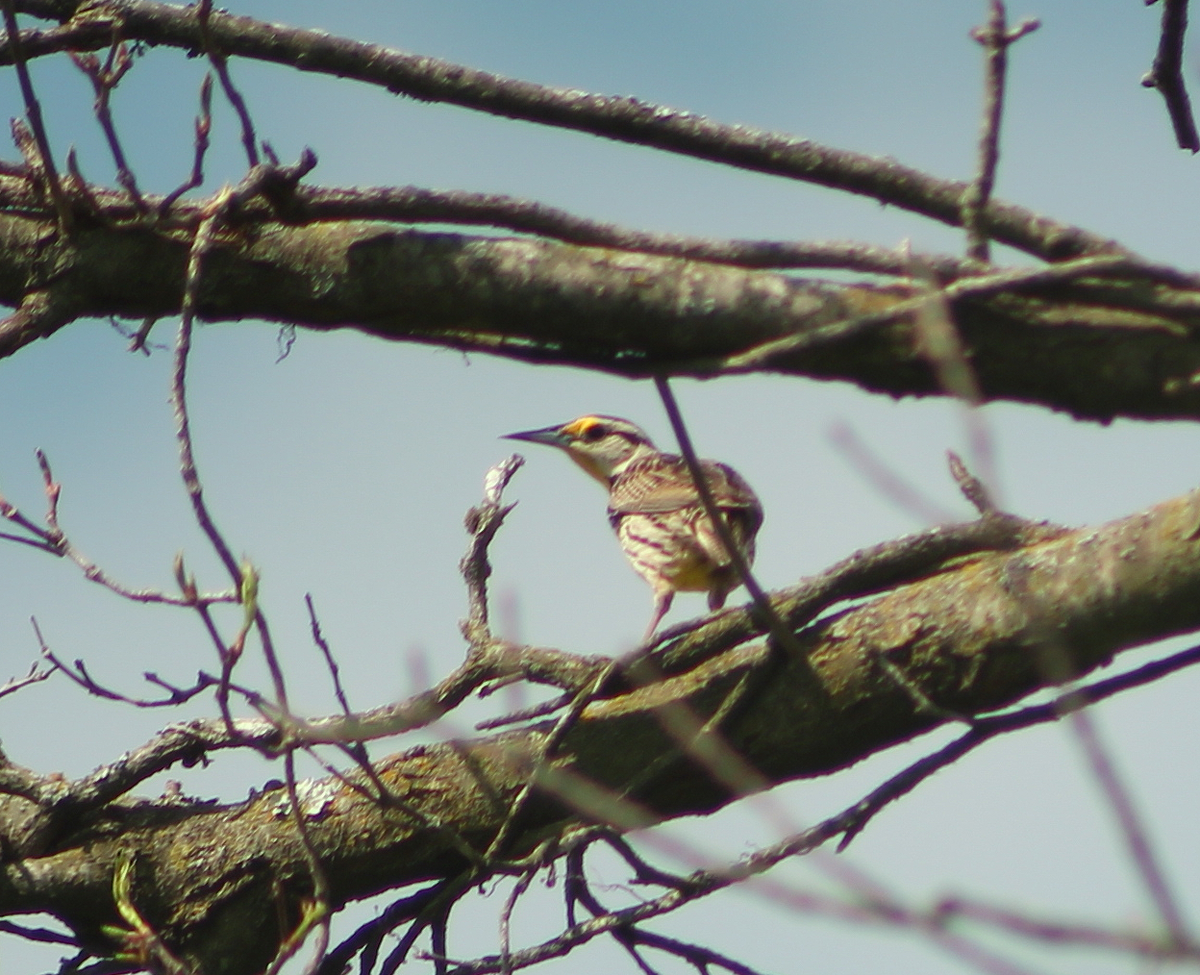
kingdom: Animalia
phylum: Chordata
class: Aves
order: Passeriformes
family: Icteridae
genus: Sturnella
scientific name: Sturnella magna
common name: Eastern meadowlark
